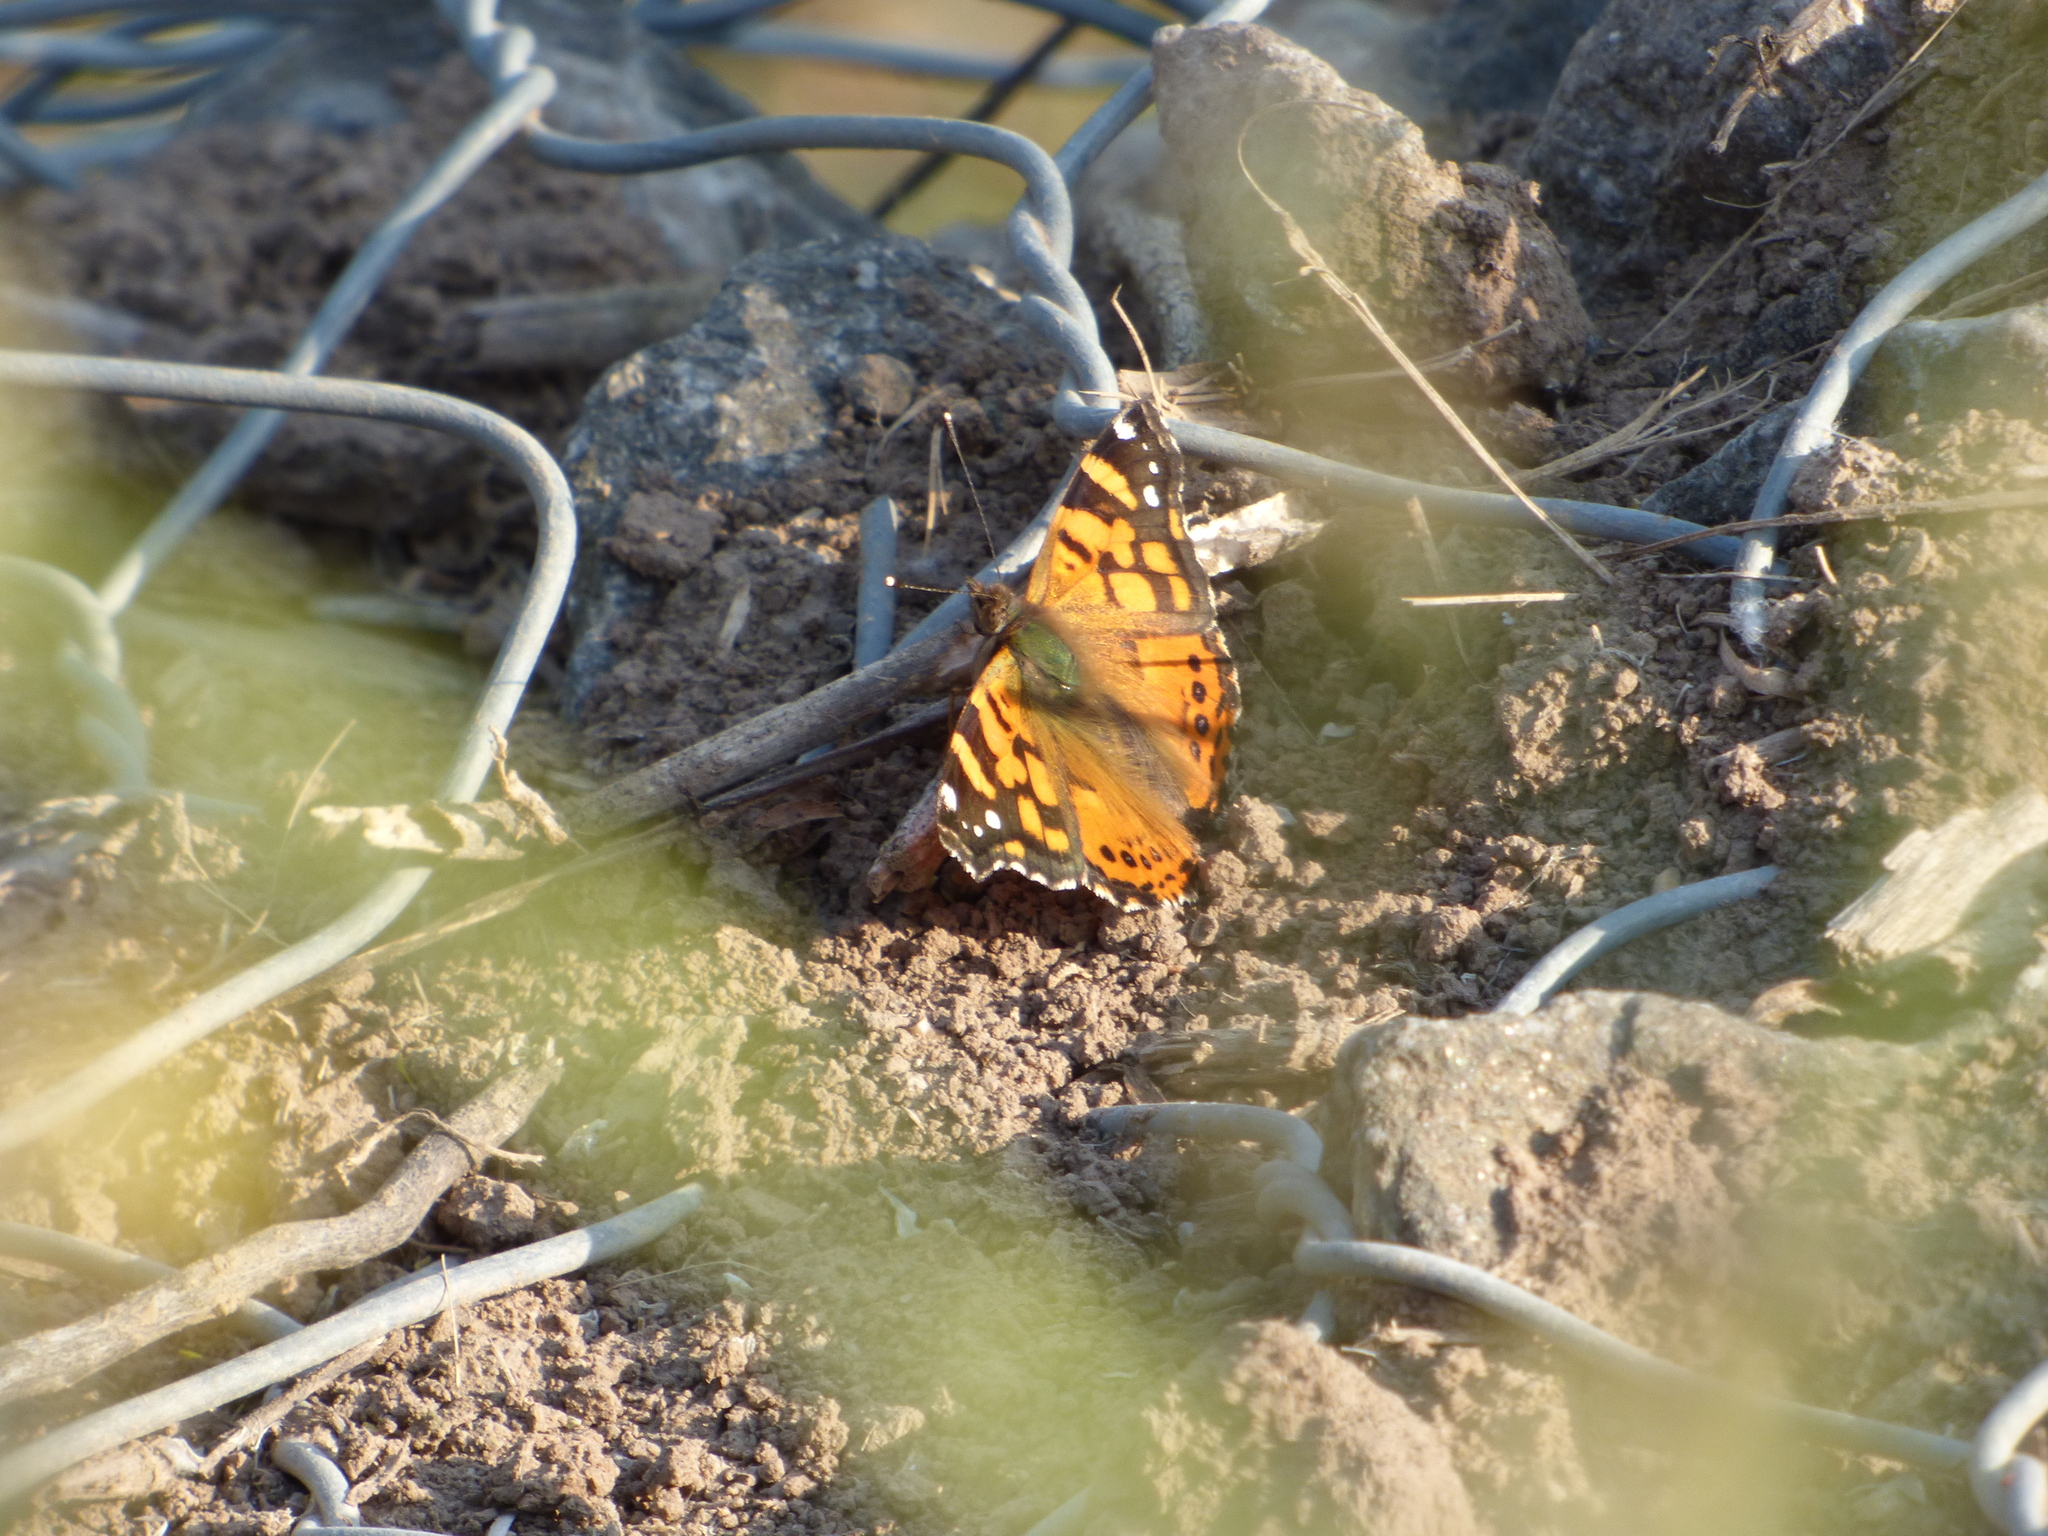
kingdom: Animalia
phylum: Arthropoda
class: Insecta
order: Lepidoptera
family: Nymphalidae
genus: Vanessa
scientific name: Vanessa carye
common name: Subtropical lady
